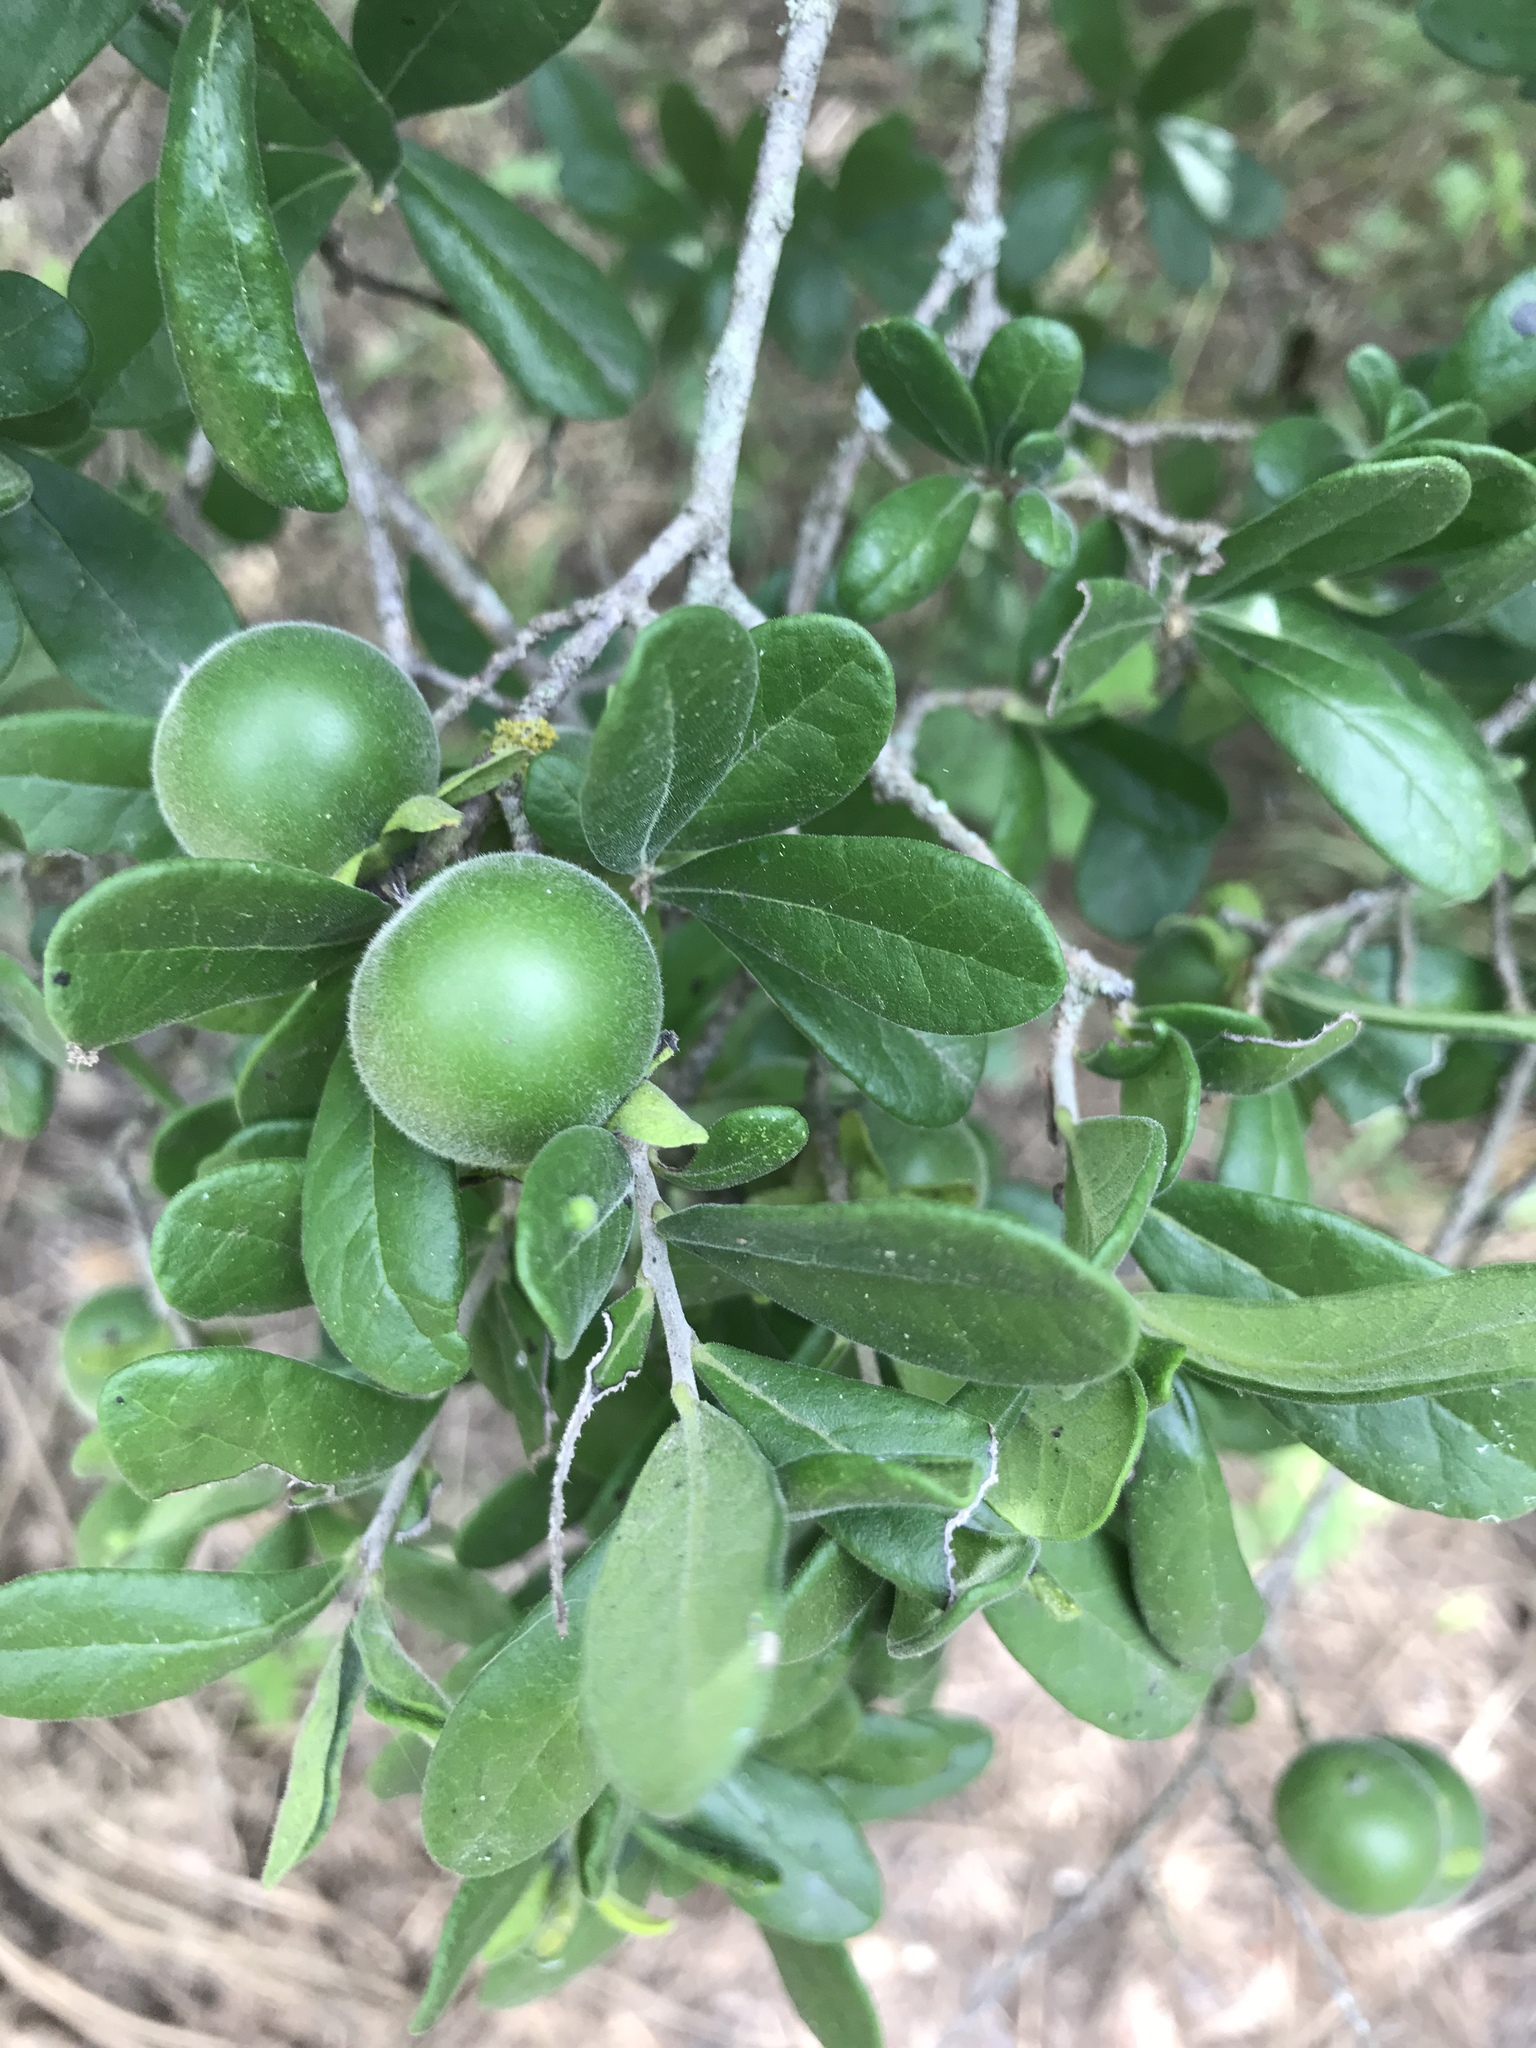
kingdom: Plantae
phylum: Tracheophyta
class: Magnoliopsida
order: Ericales
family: Ebenaceae
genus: Diospyros
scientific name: Diospyros texana
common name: Texas persimmon
